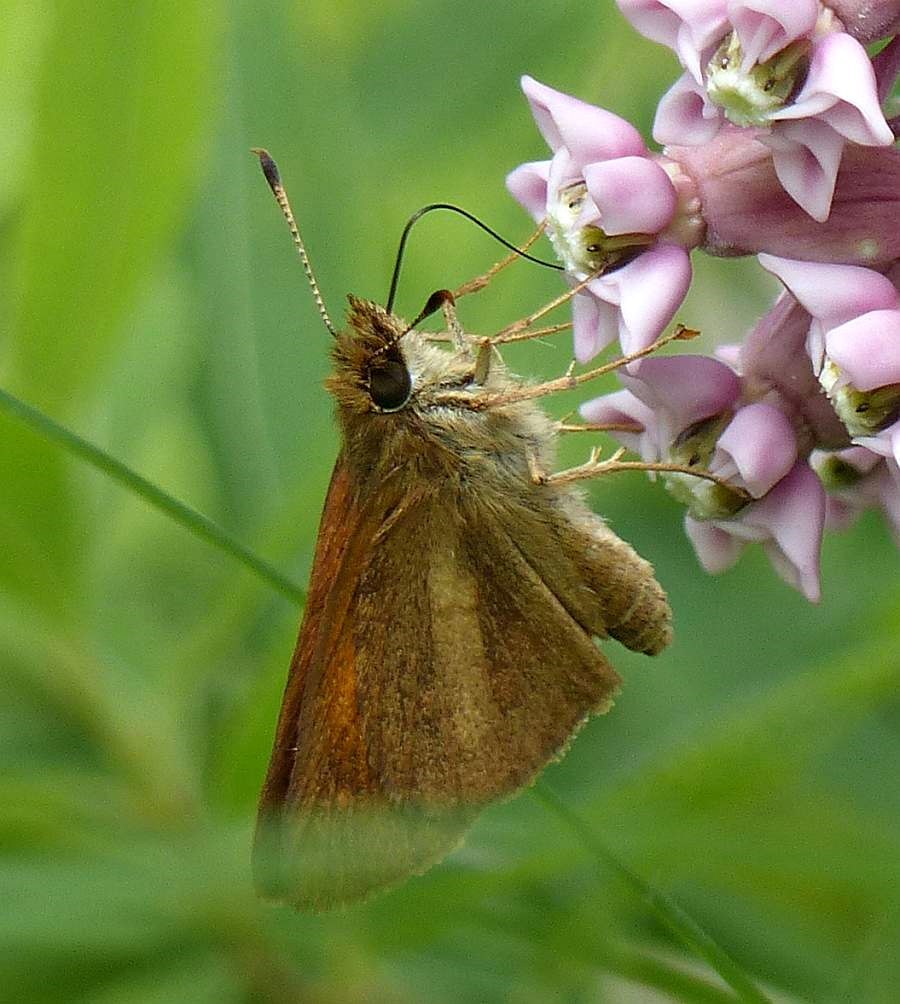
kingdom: Animalia
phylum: Arthropoda
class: Insecta
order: Lepidoptera
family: Hesperiidae
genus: Poanes
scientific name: Poanes viator
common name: Broad-winged skipper
